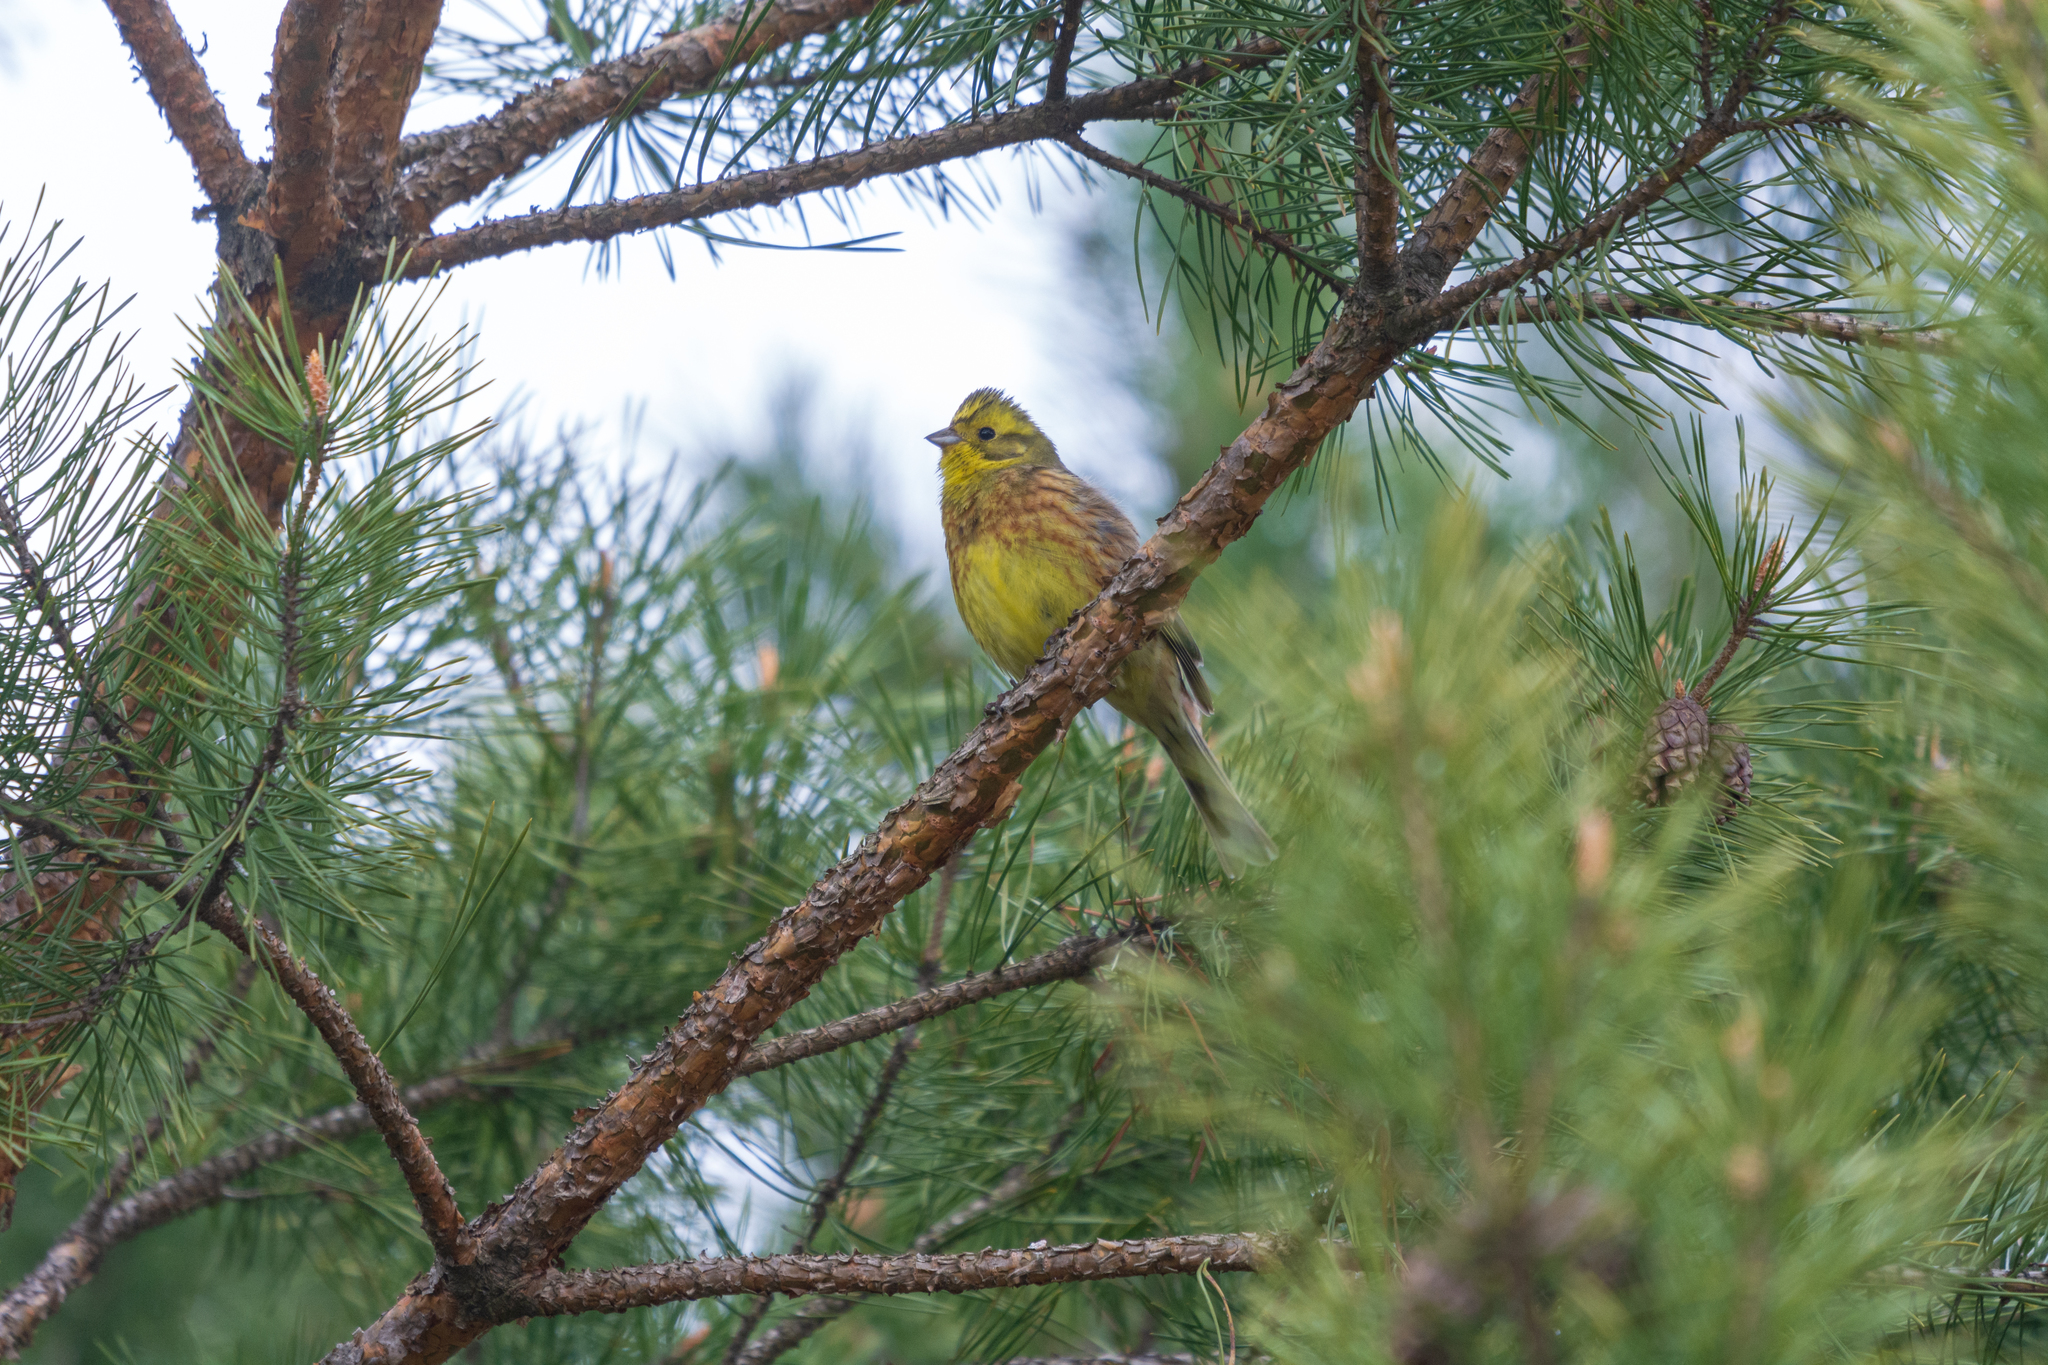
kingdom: Animalia
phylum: Chordata
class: Aves
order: Passeriformes
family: Emberizidae
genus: Emberiza
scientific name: Emberiza citrinella
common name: Yellowhammer
